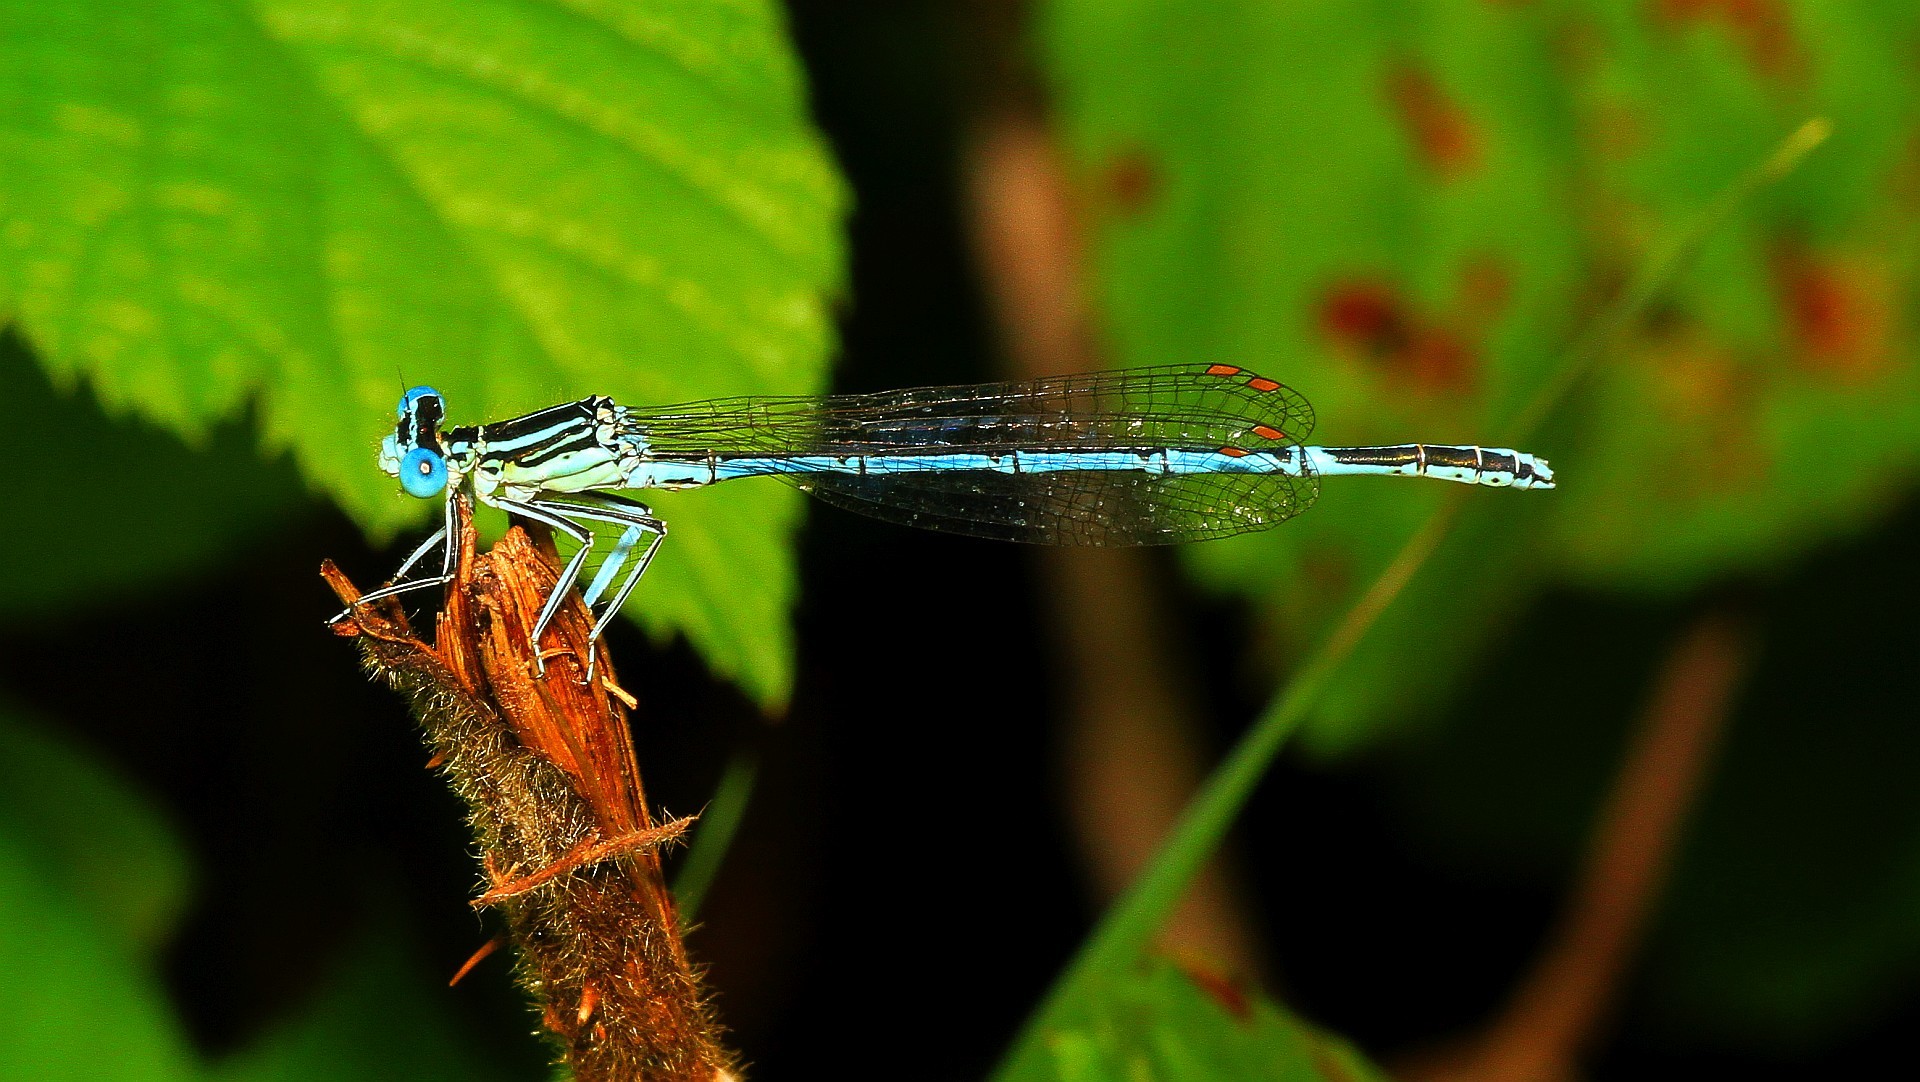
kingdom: Animalia
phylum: Arthropoda
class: Insecta
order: Odonata
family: Platycnemididae
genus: Platycnemis
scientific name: Platycnemis pennipes
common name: White-legged damselfly
